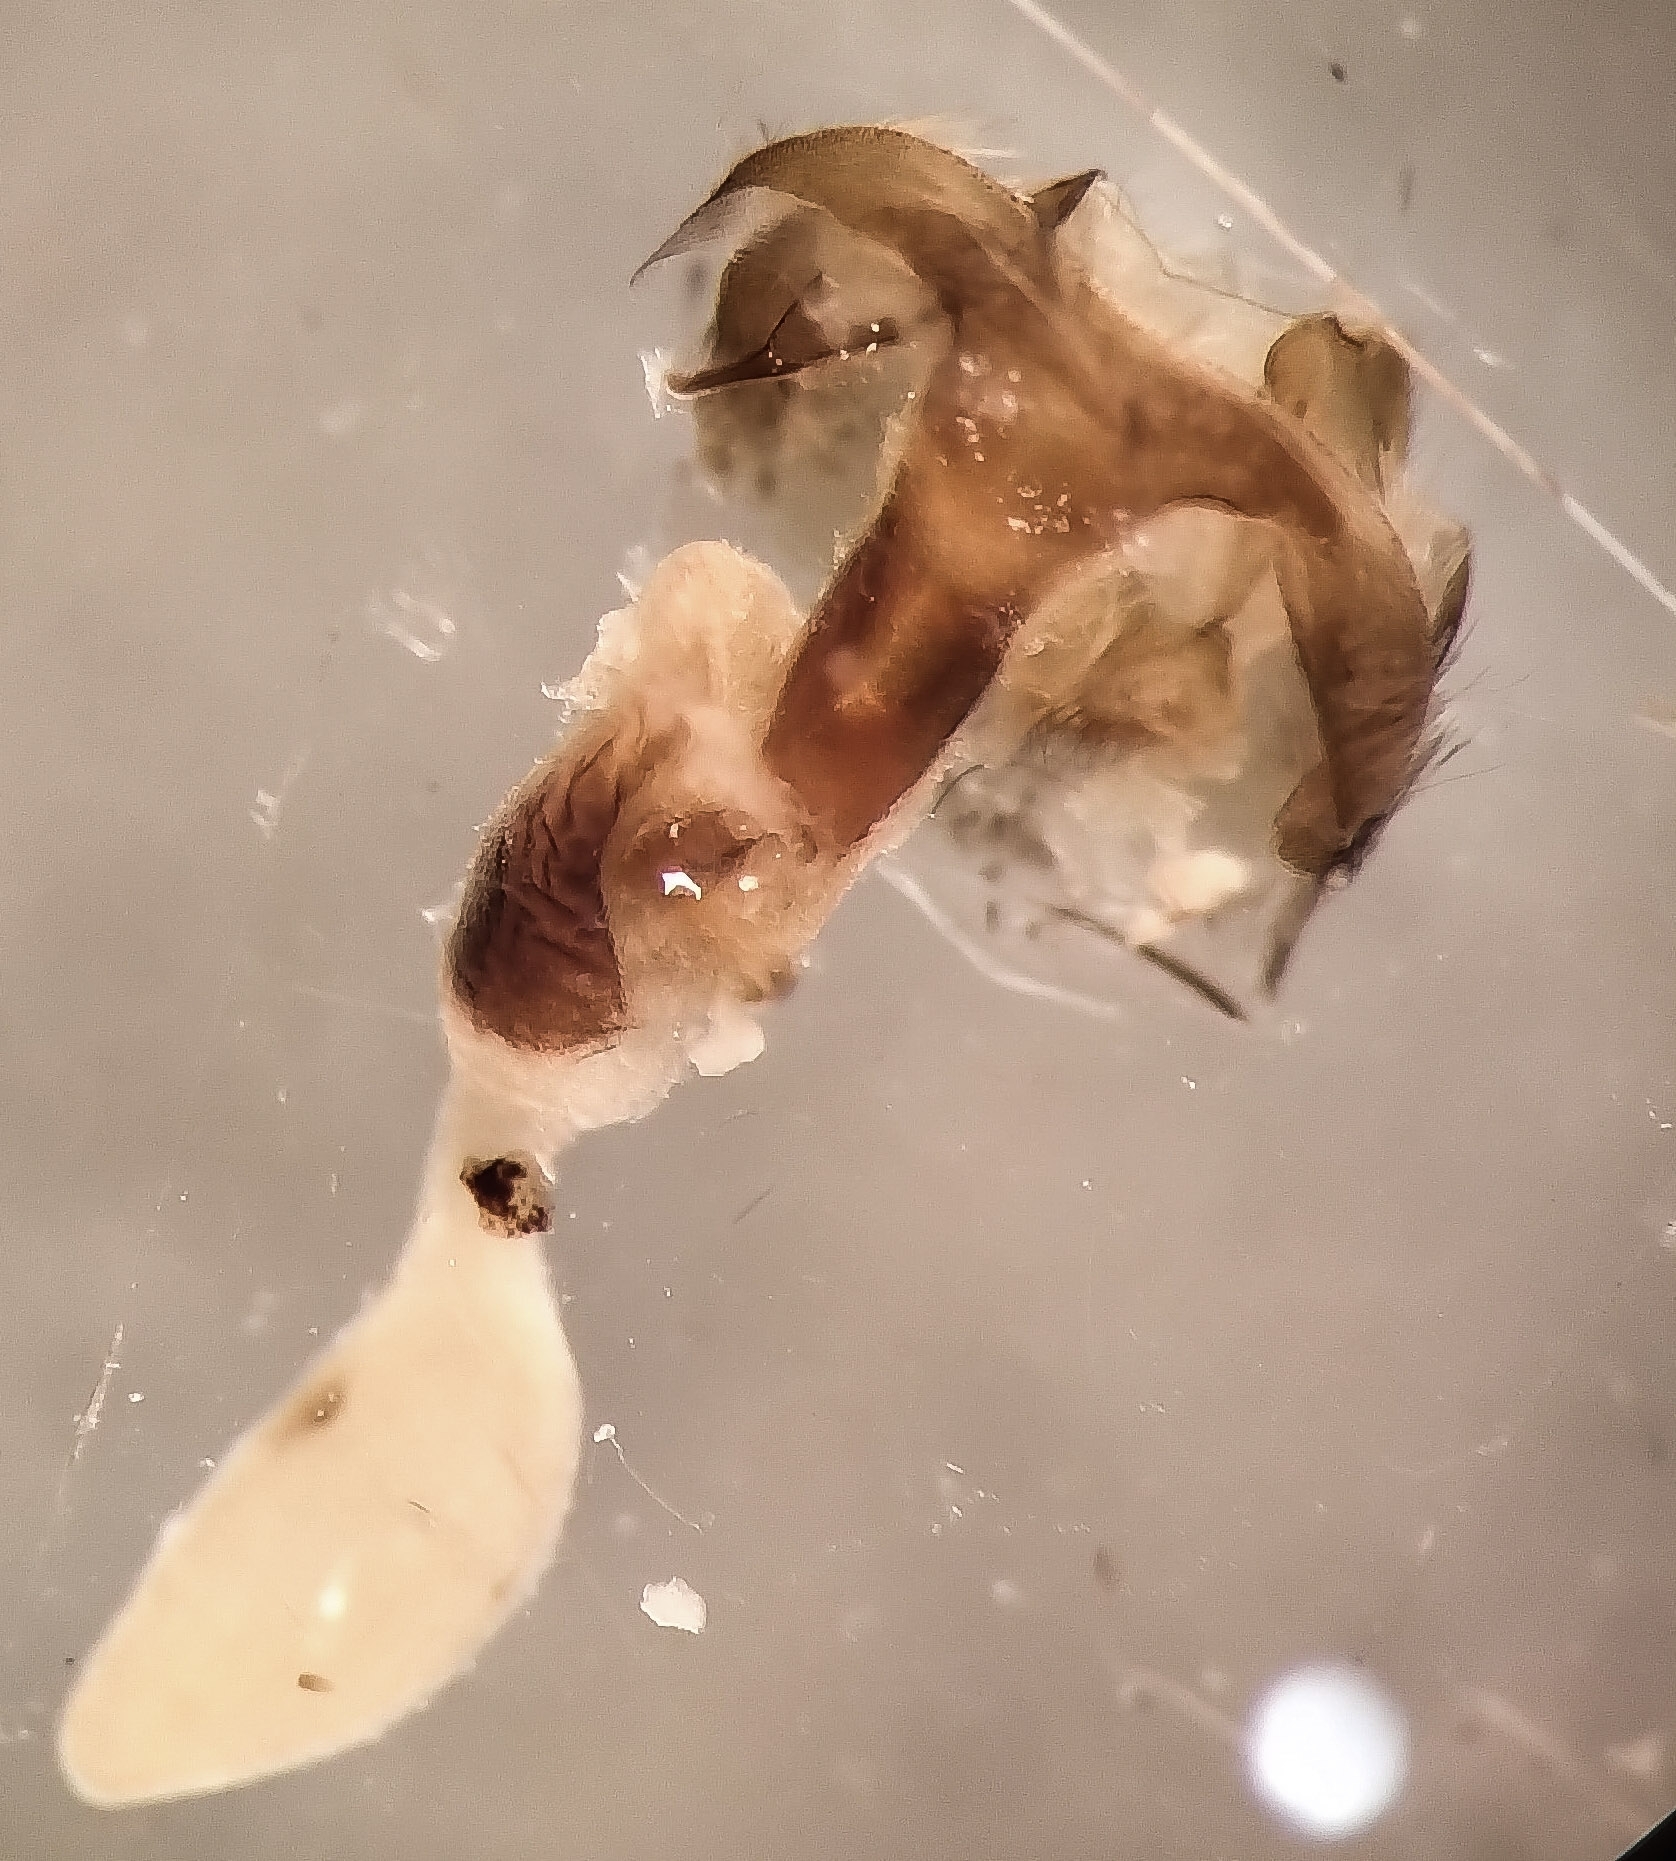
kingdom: Animalia
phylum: Arthropoda
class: Insecta
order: Lepidoptera
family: Noctuidae
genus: Abagrotis
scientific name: Abagrotis trigona
